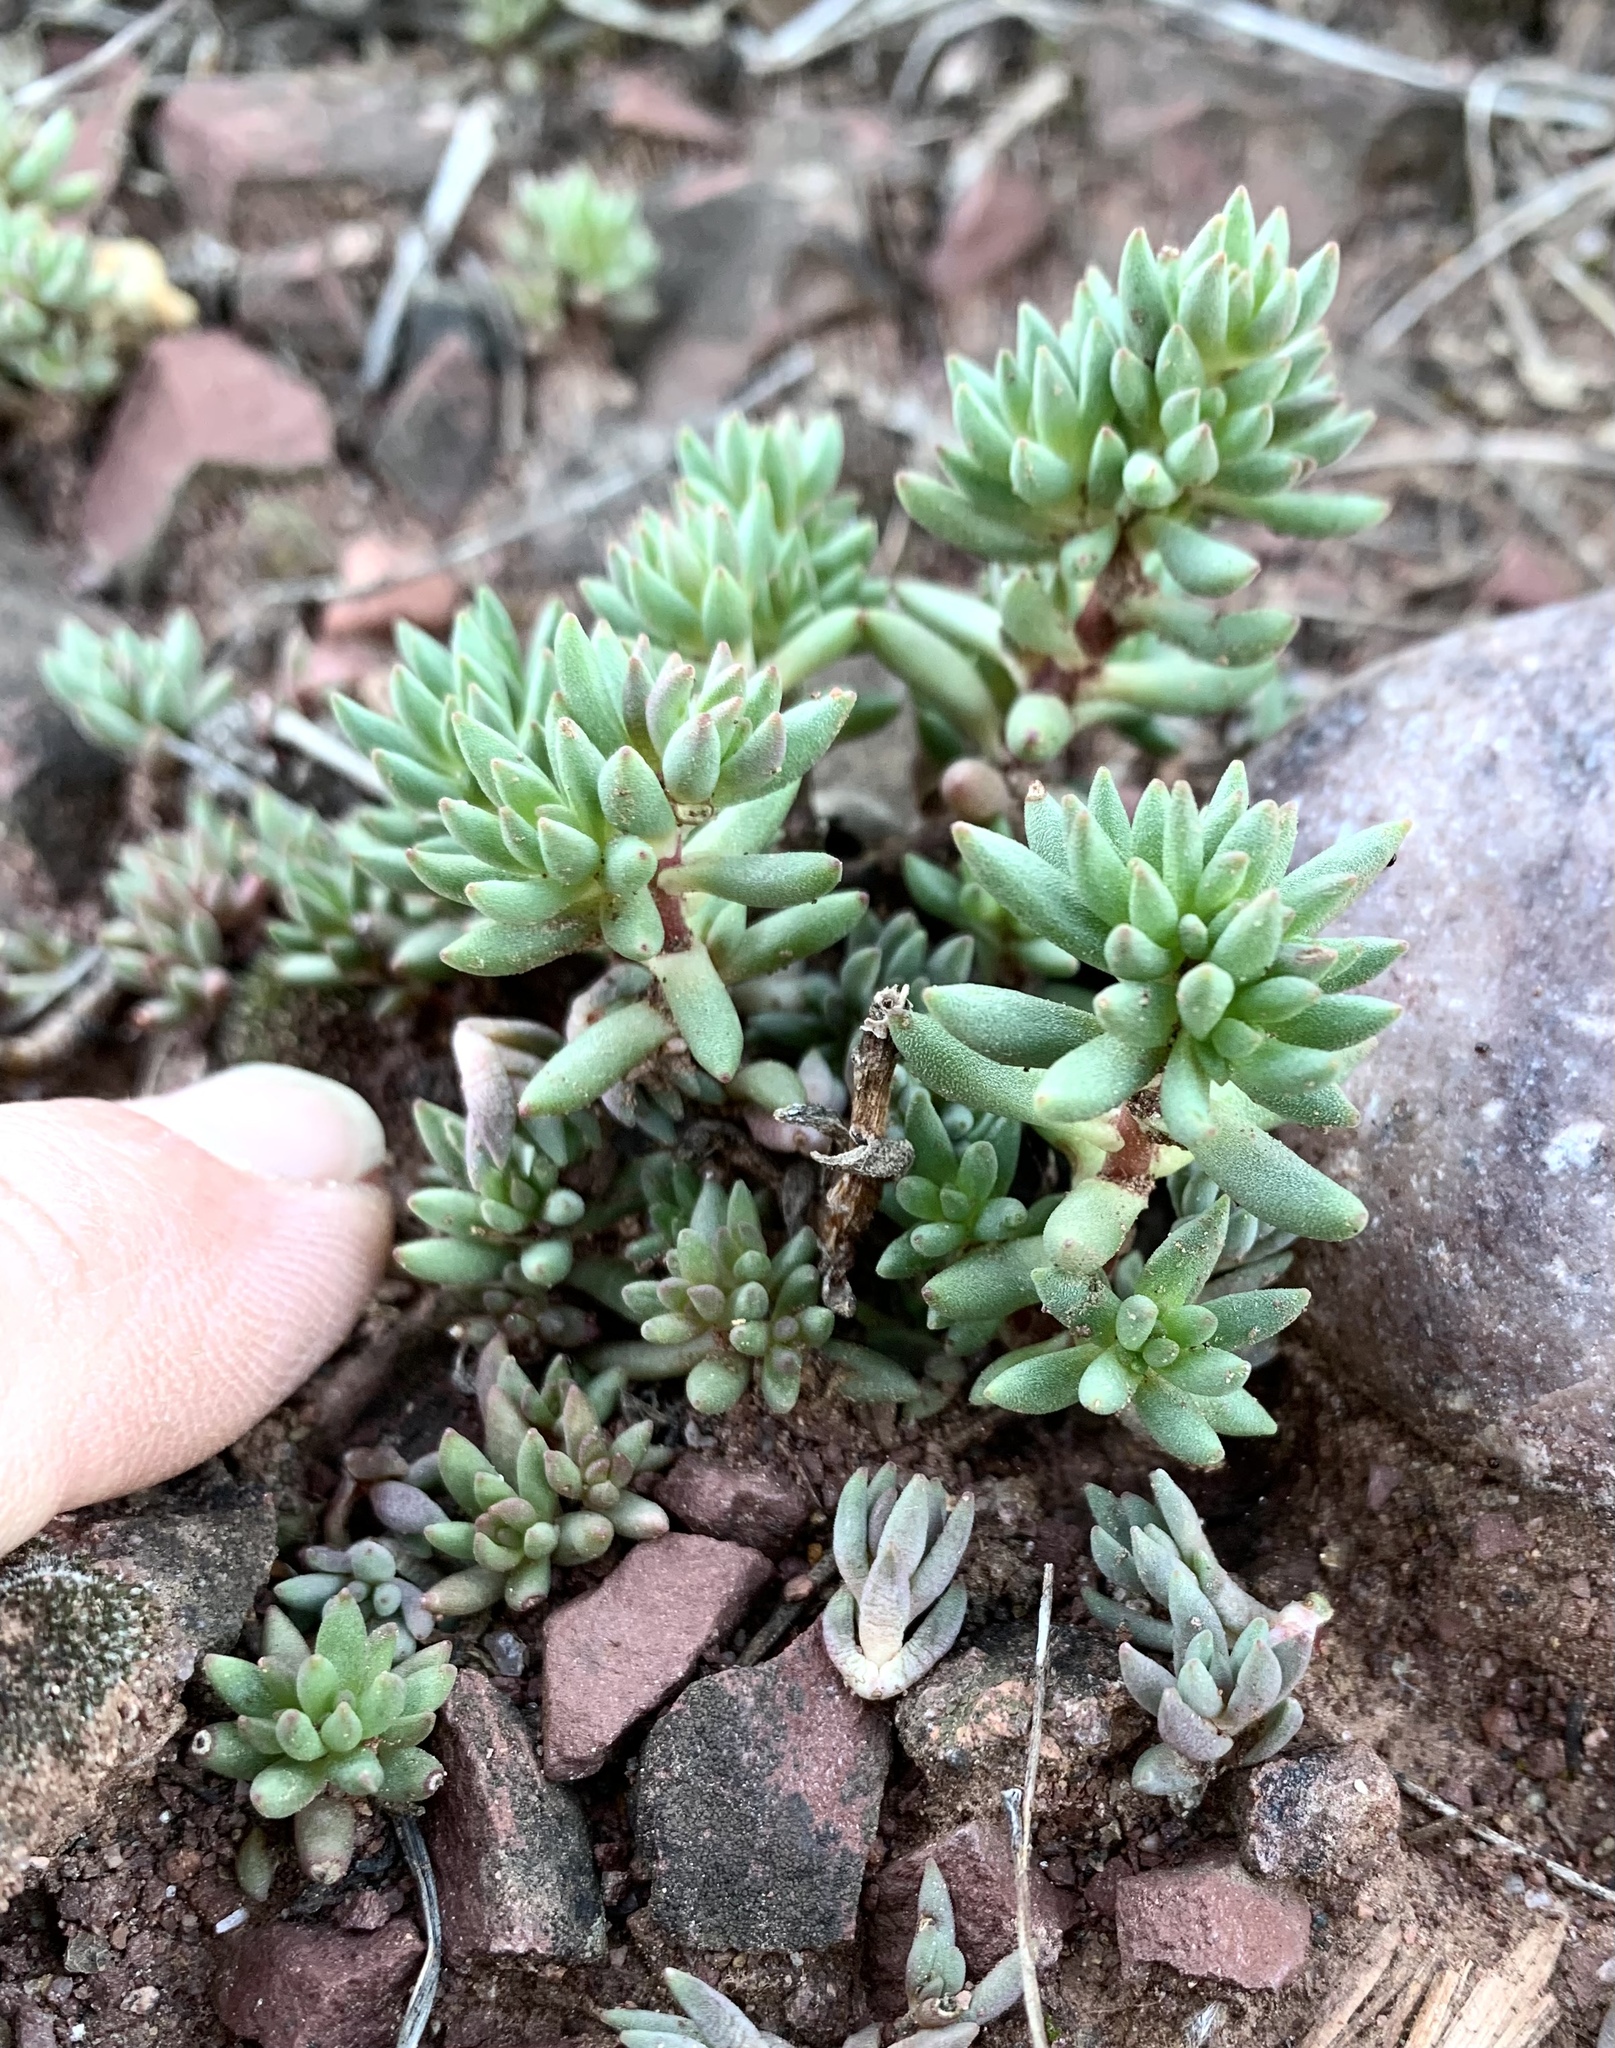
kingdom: Plantae
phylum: Tracheophyta
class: Magnoliopsida
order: Saxifragales
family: Crassulaceae
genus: Sedum
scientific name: Sedum lanceolatum
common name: Common stonecrop
